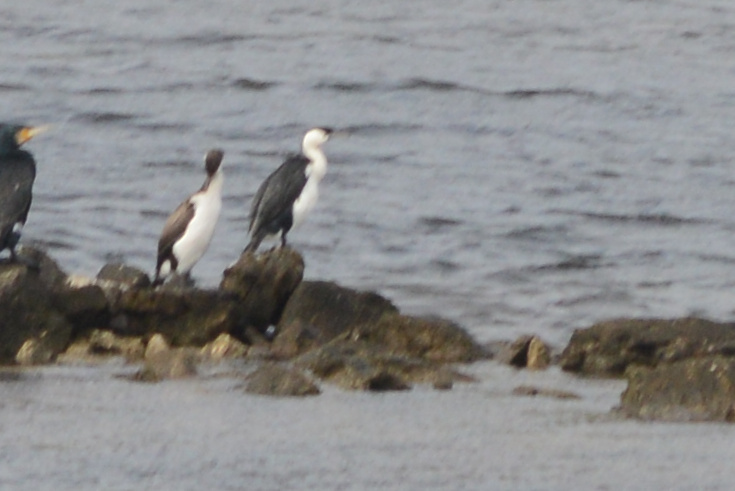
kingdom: Animalia
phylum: Chordata
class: Aves
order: Suliformes
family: Phalacrocoracidae
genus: Phalacrocorax
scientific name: Phalacrocorax fuscescens
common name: Black-faced cormorant
